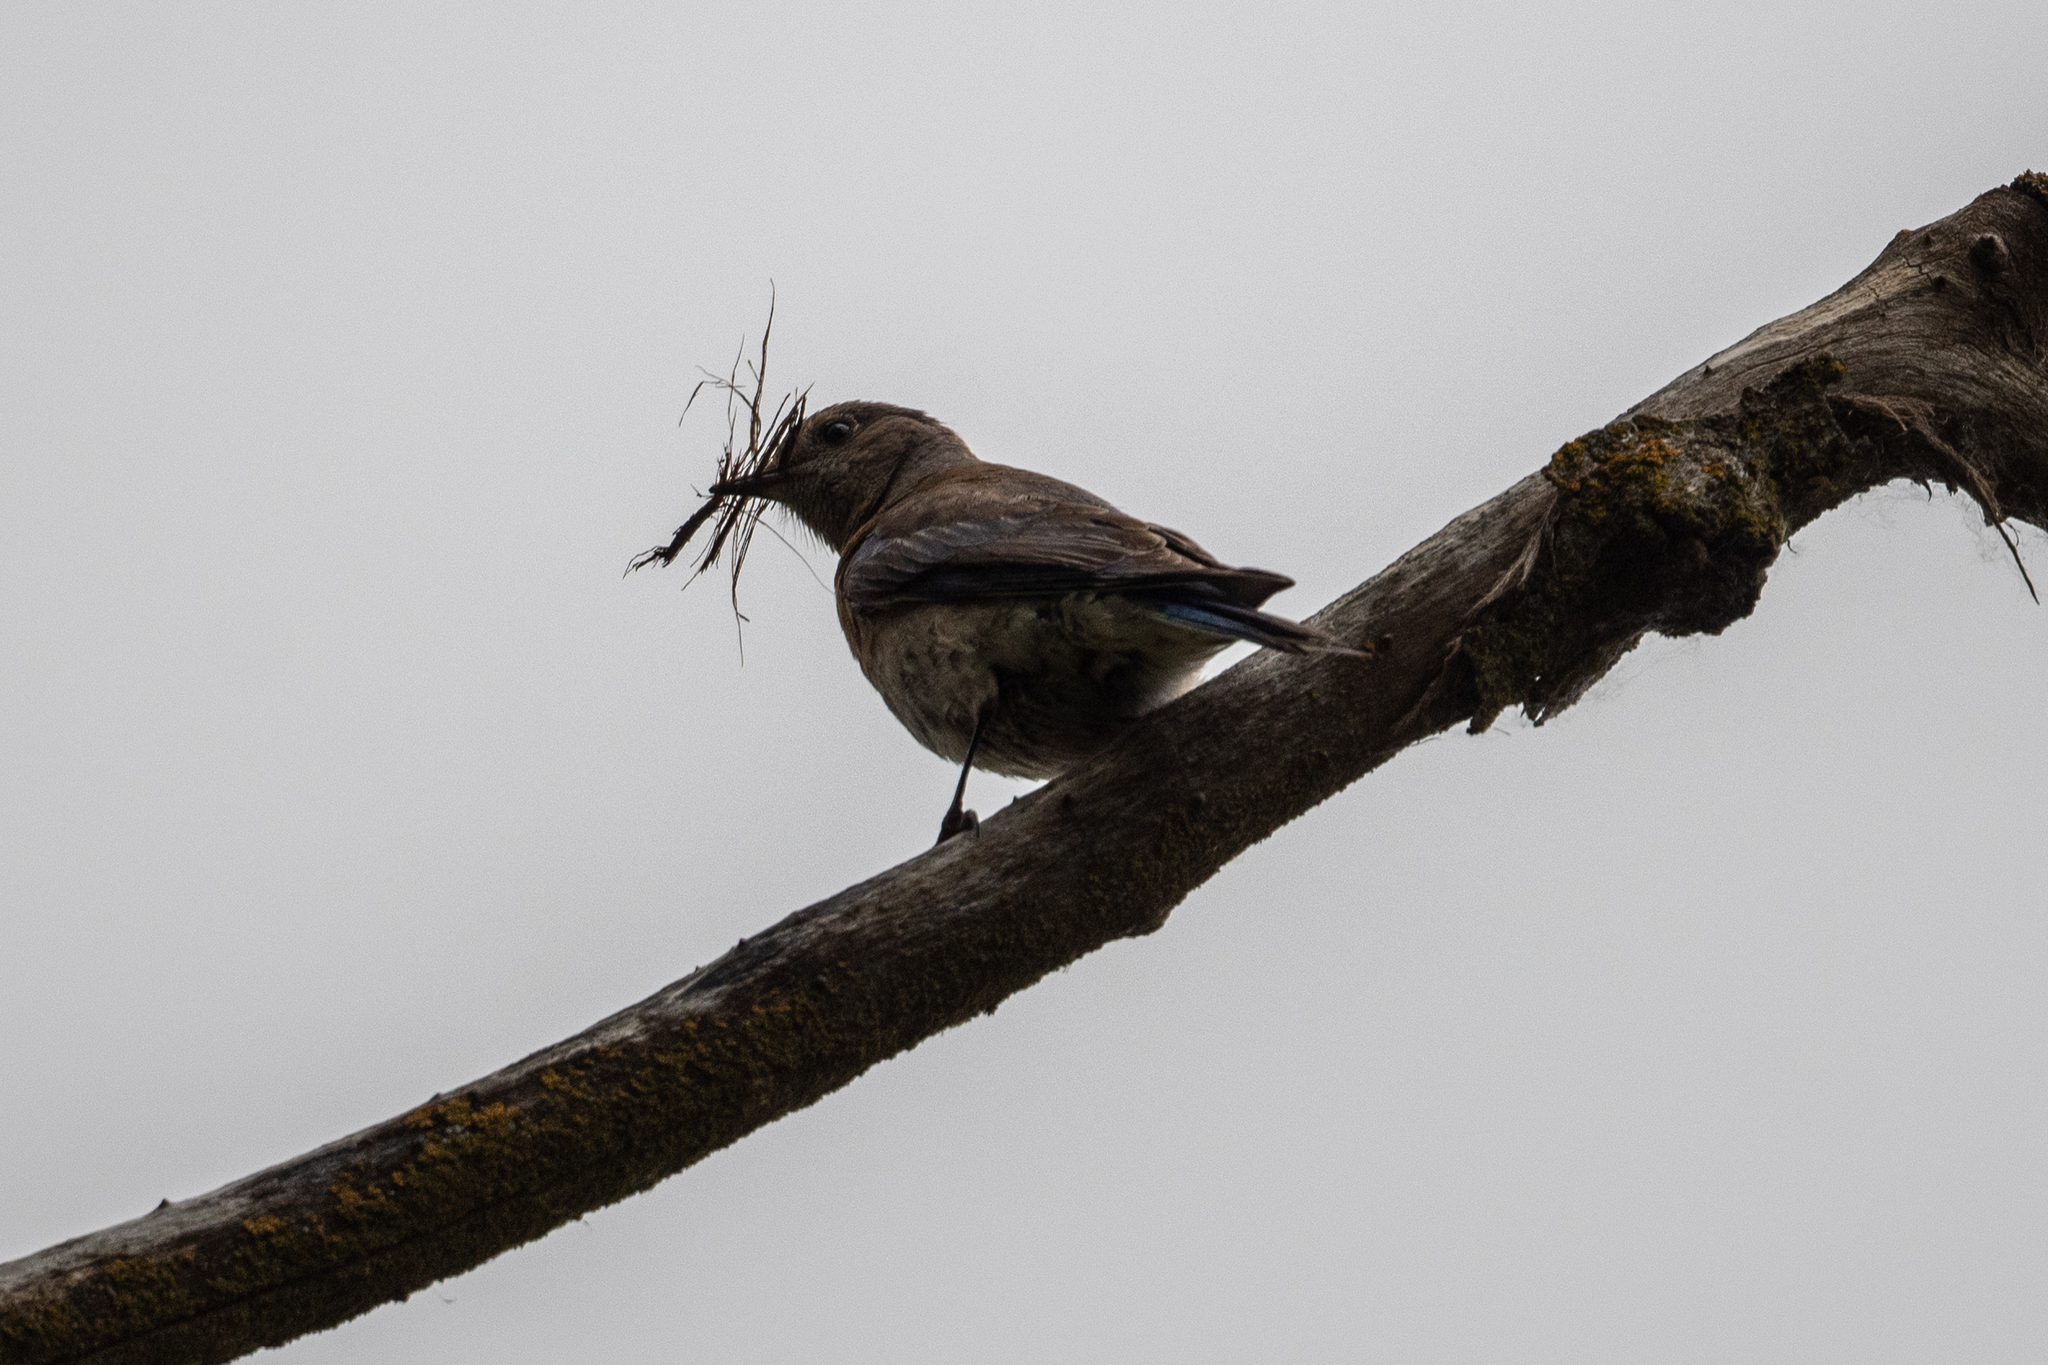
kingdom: Animalia
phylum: Chordata
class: Aves
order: Passeriformes
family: Turdidae
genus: Sialia
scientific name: Sialia mexicana
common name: Western bluebird
